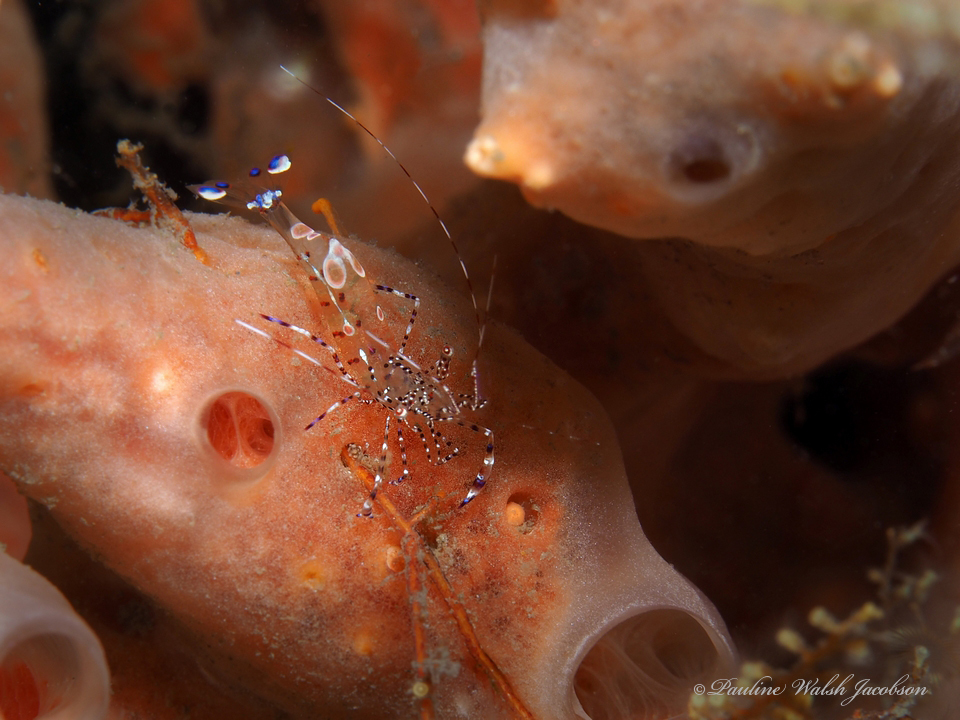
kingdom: Animalia
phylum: Arthropoda
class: Malacostraca
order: Decapoda
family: Palaemonidae
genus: Periclimenes
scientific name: Periclimenes yucatanicus
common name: Spotted cleaning shrimp
